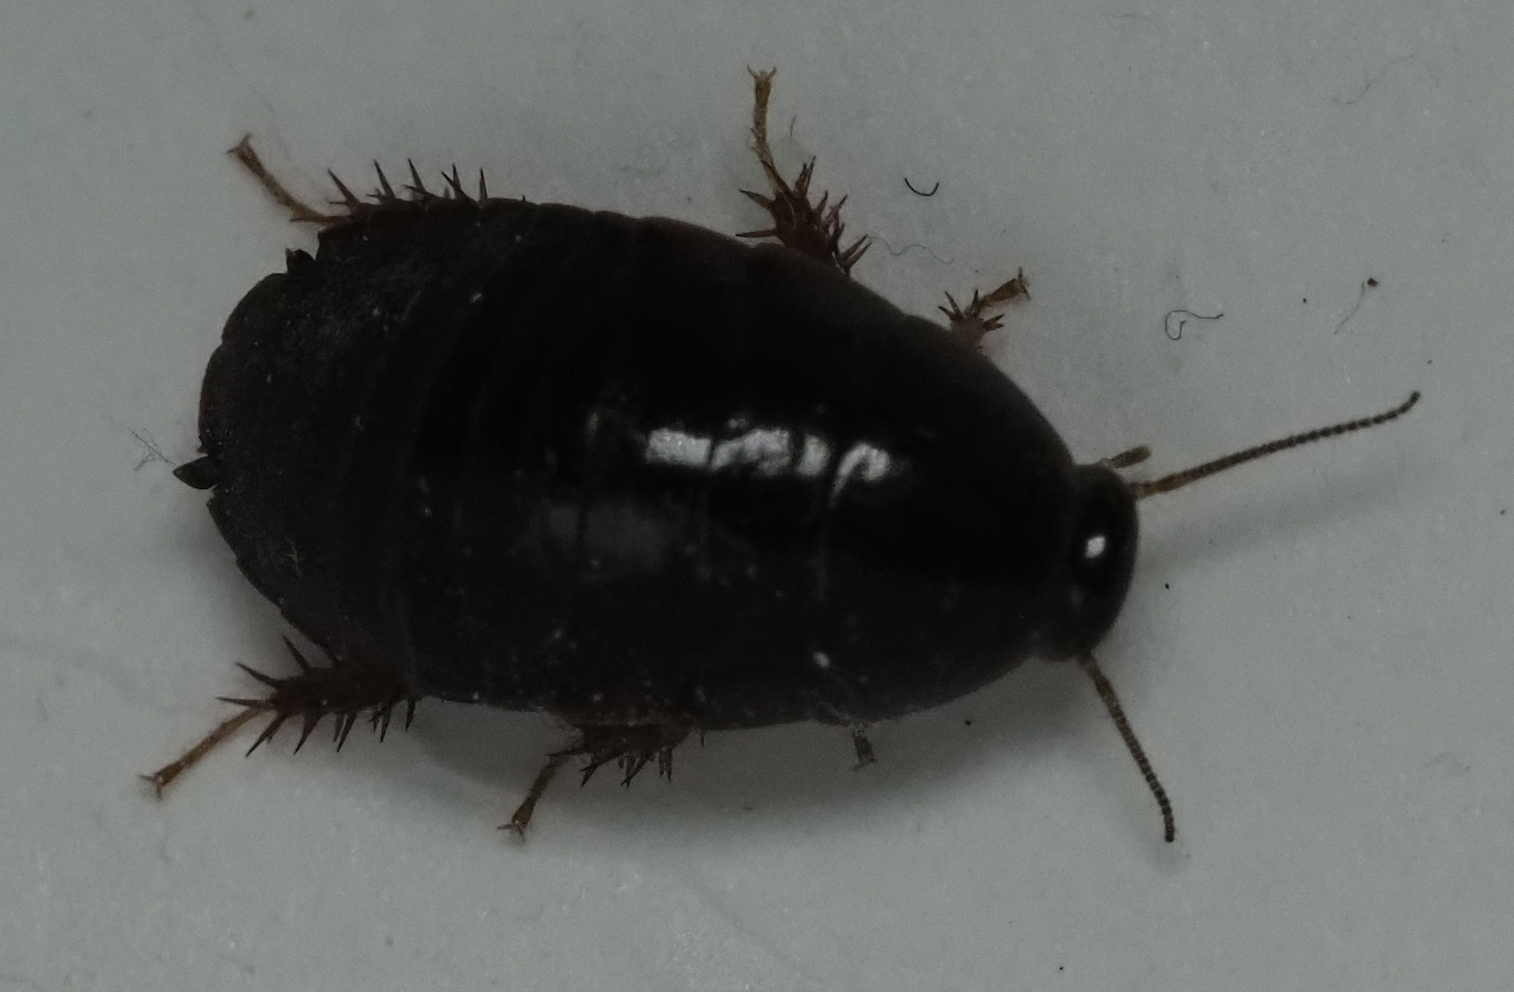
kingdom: Animalia
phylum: Arthropoda
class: Insecta
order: Blattodea
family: Blaberidae
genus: Pycnoscelus
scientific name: Pycnoscelus surinamensis
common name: Surinam cockroach
